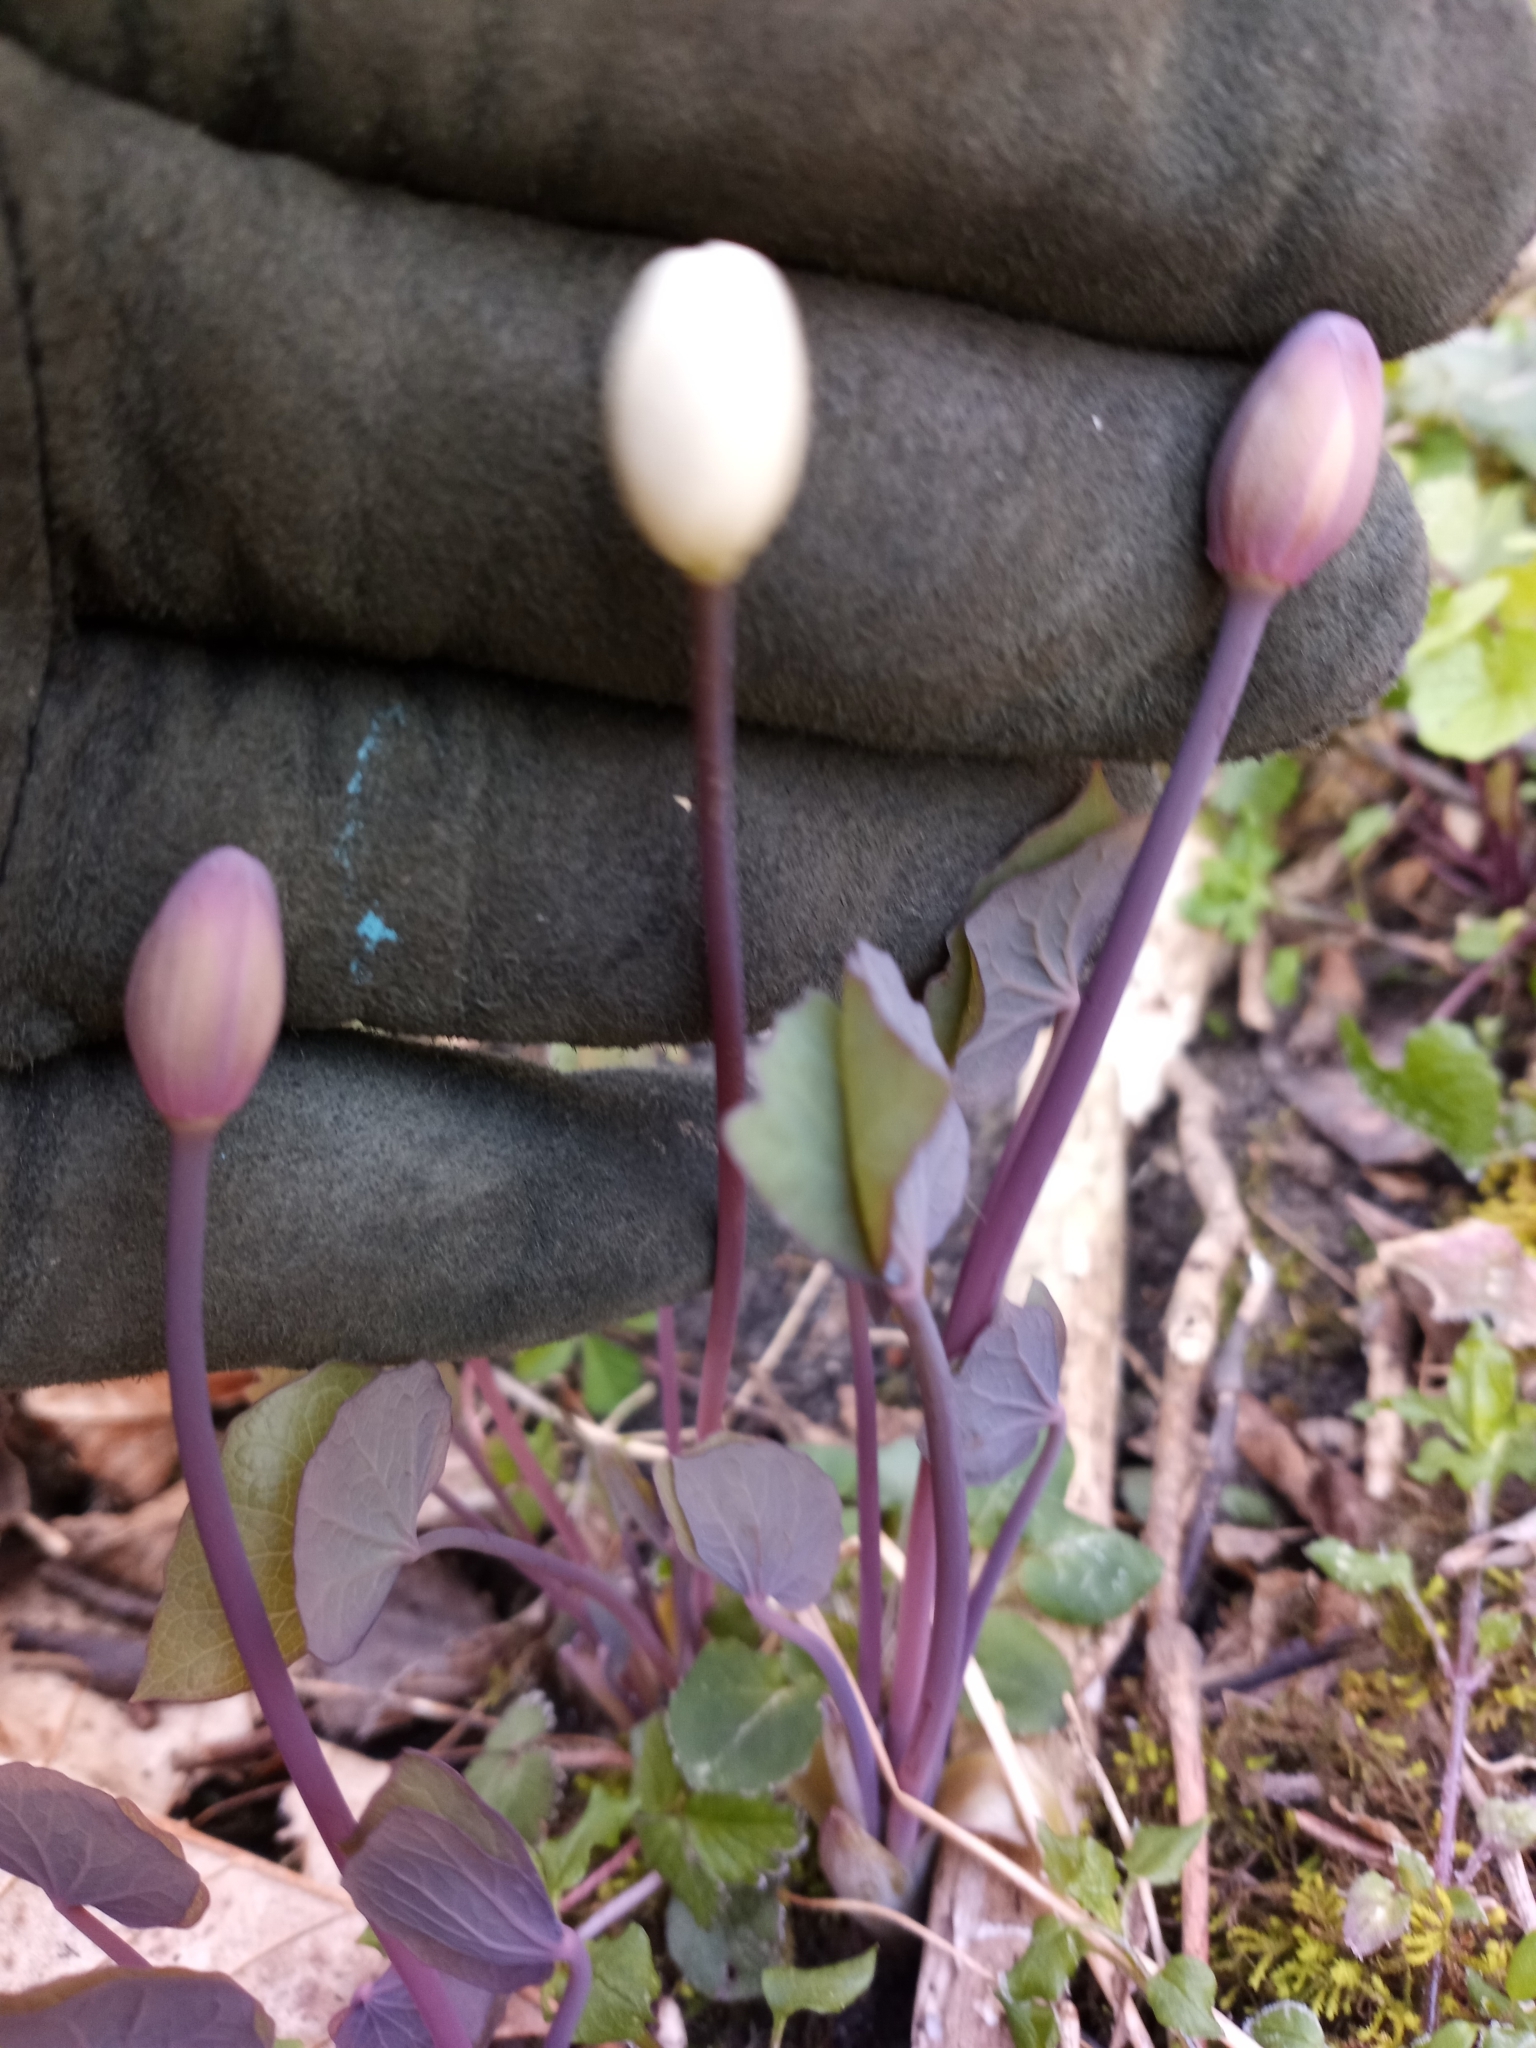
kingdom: Plantae
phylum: Tracheophyta
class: Magnoliopsida
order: Ranunculales
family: Berberidaceae
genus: Jeffersonia
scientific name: Jeffersonia diphylla
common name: Rheumatism-root
